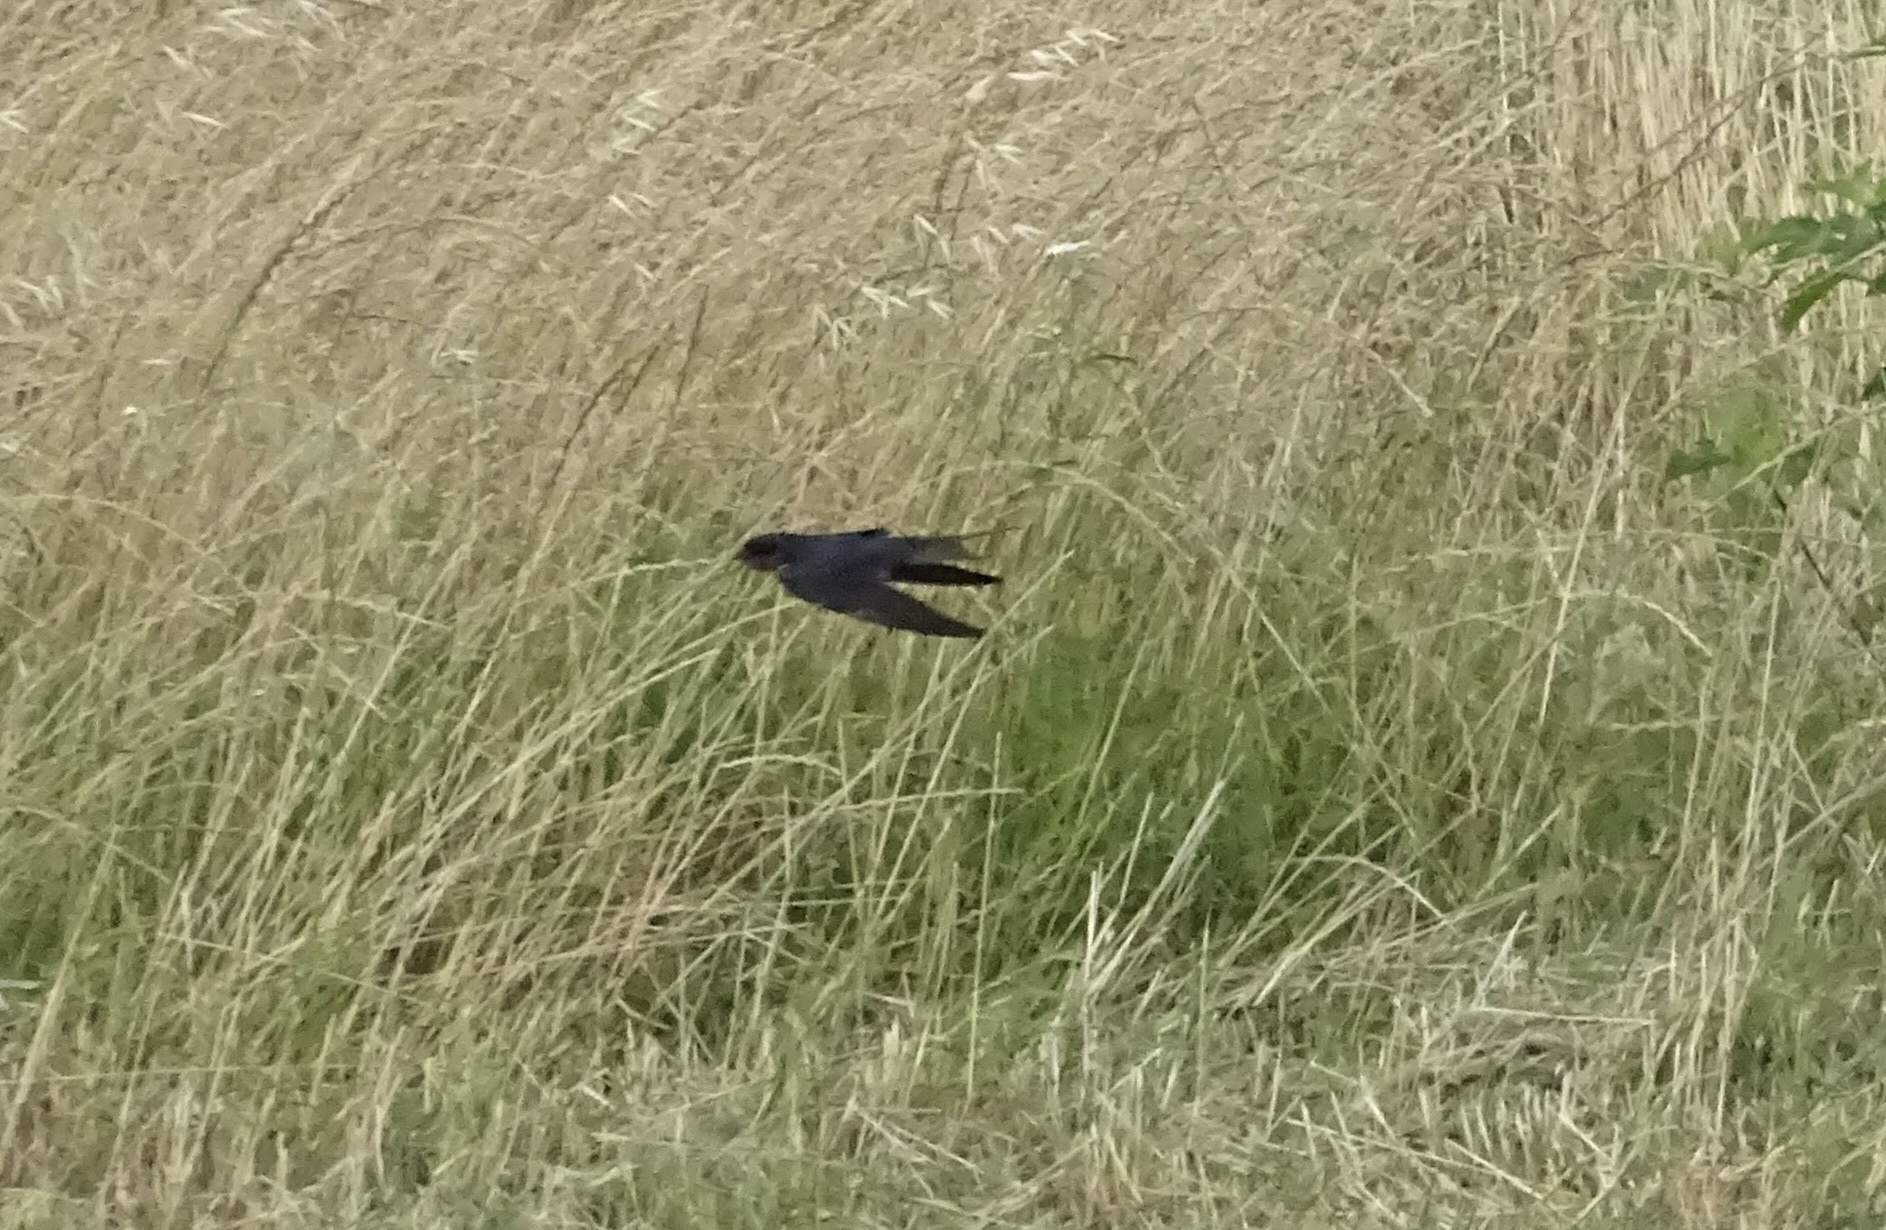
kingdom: Animalia
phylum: Chordata
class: Aves
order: Passeriformes
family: Hirundinidae
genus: Hirundo
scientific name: Hirundo rustica
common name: Barn swallow
